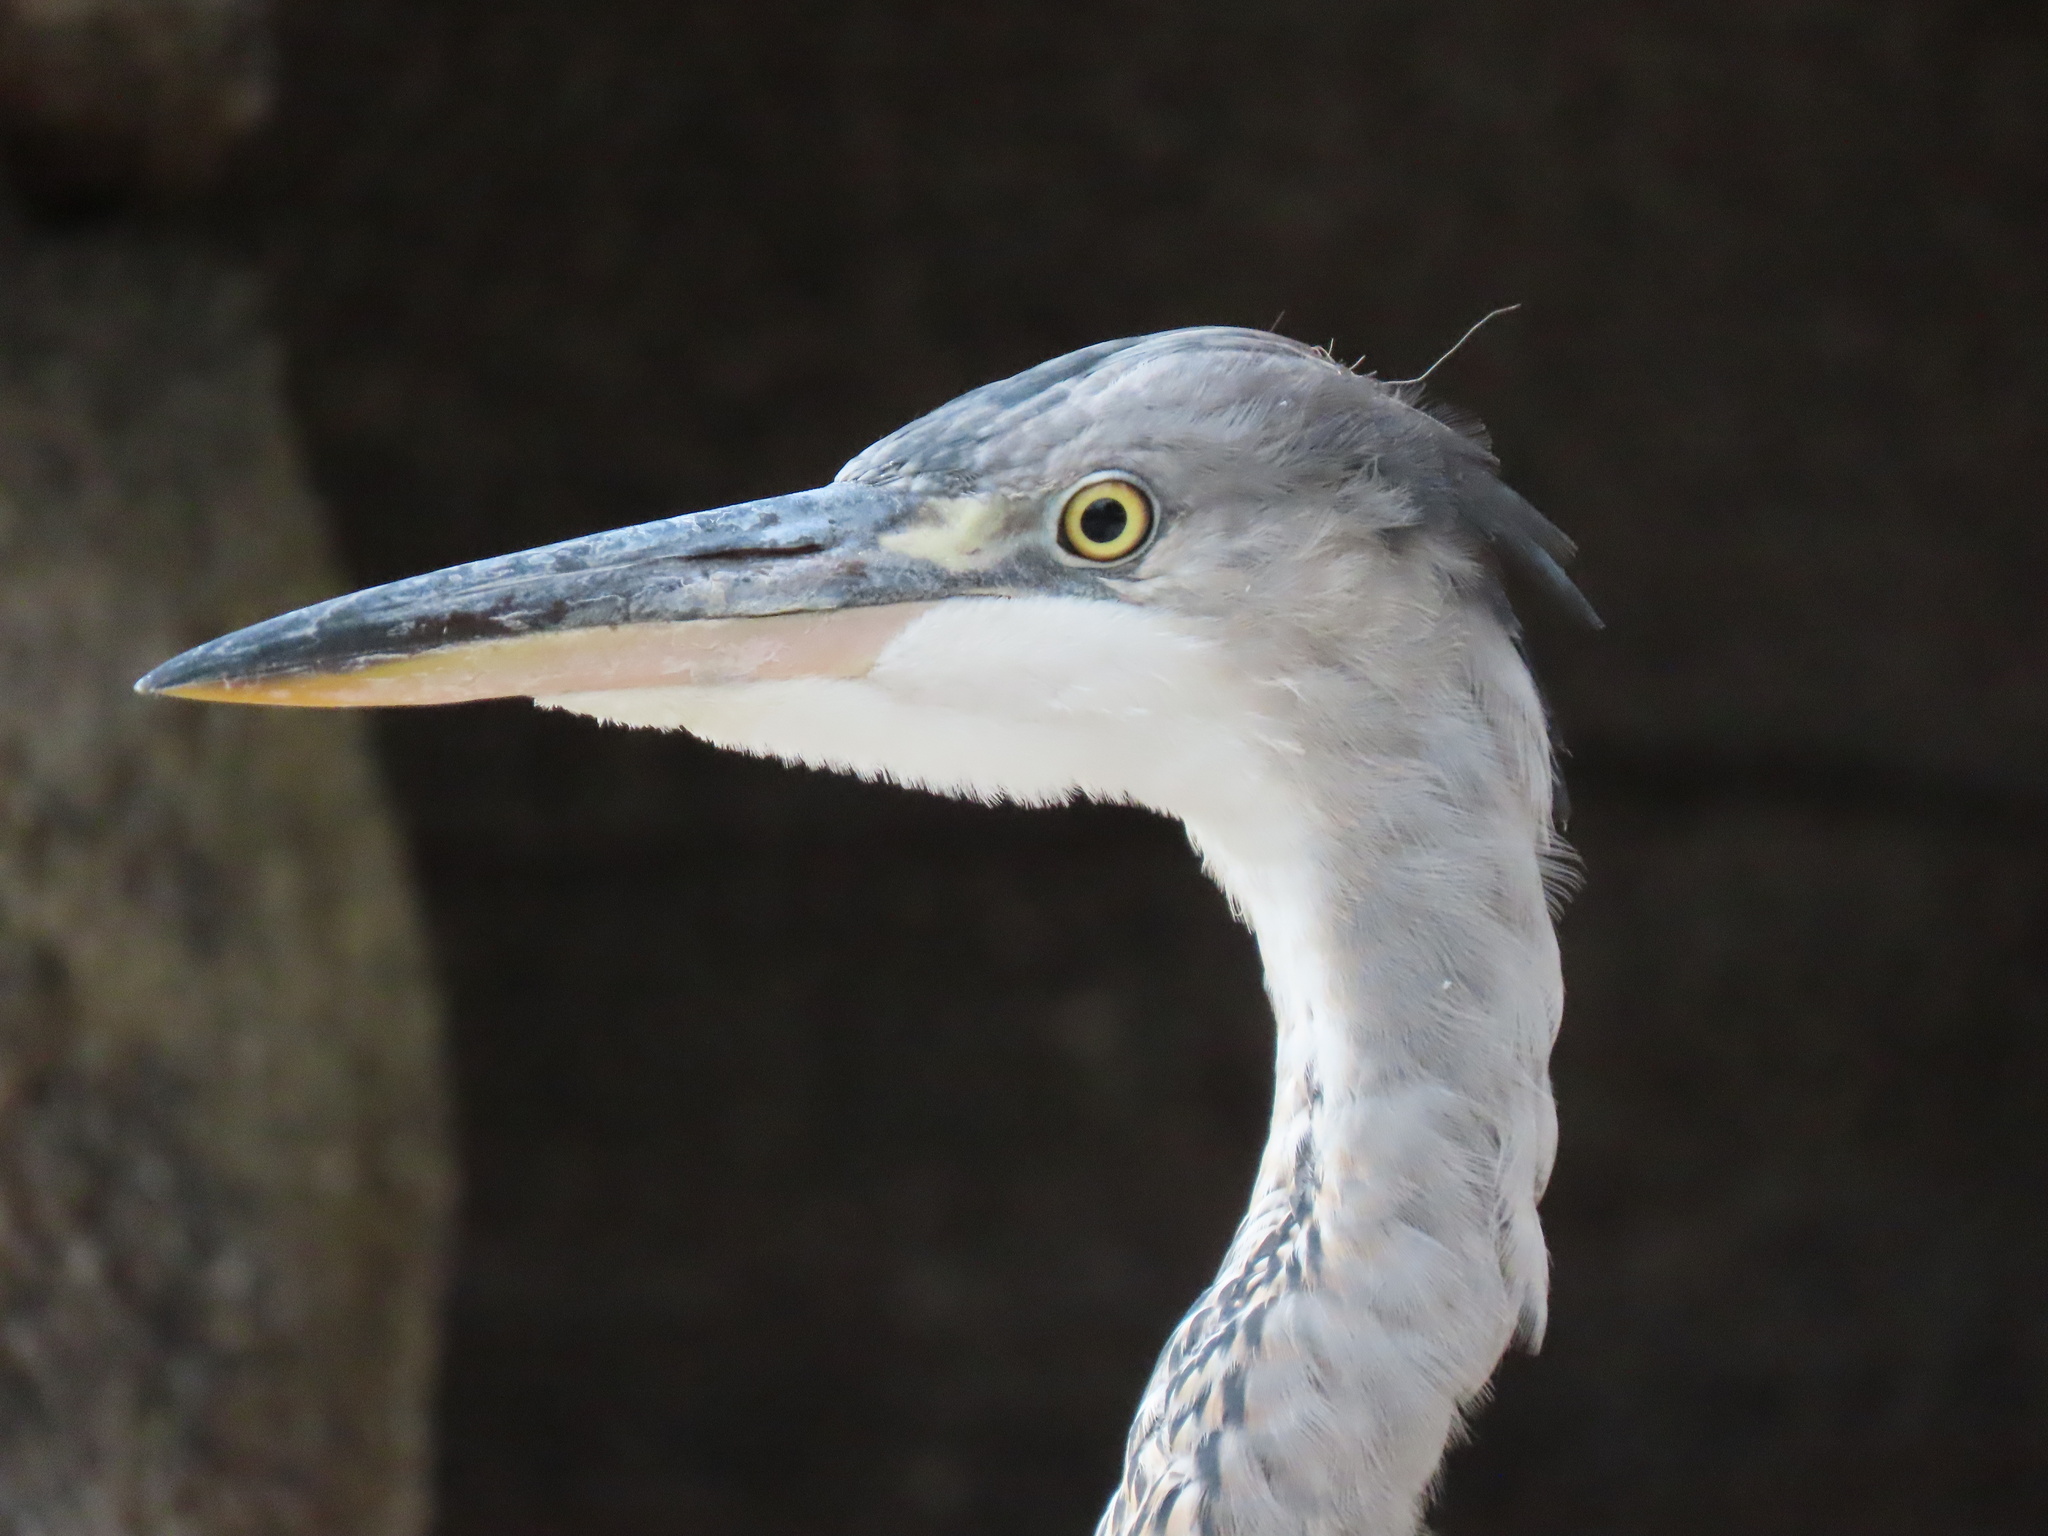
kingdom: Animalia
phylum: Chordata
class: Aves
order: Pelecaniformes
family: Ardeidae
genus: Ardea
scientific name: Ardea cinerea
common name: Grey heron
